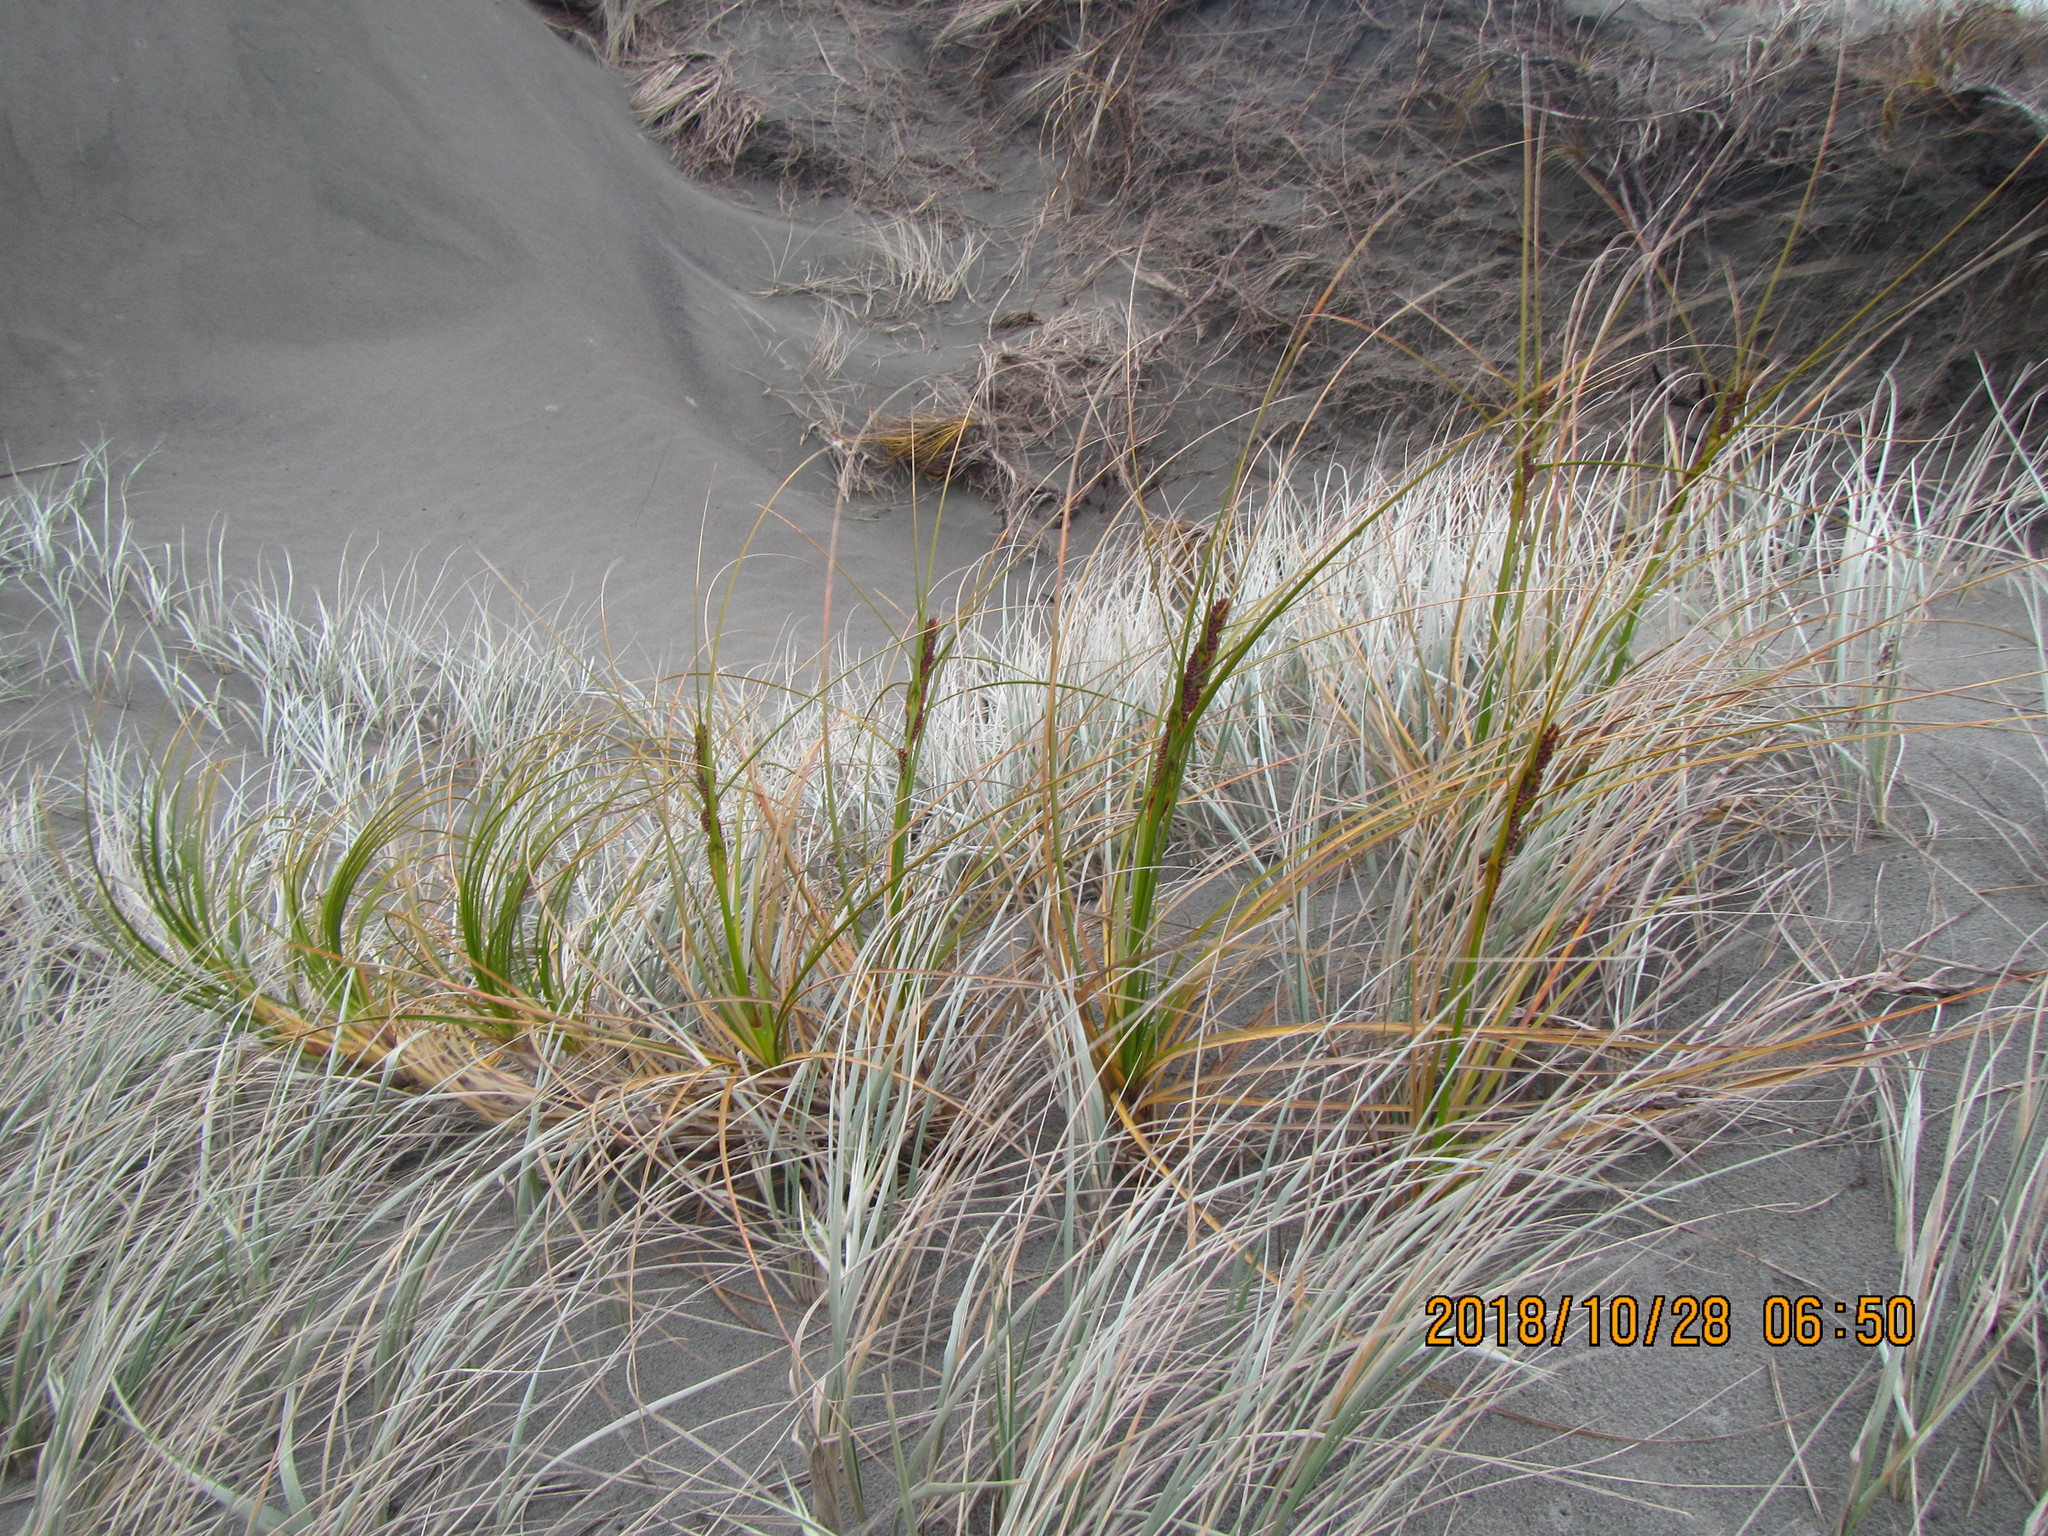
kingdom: Plantae
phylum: Tracheophyta
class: Liliopsida
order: Poales
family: Cyperaceae
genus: Ficinia
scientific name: Ficinia spiralis
